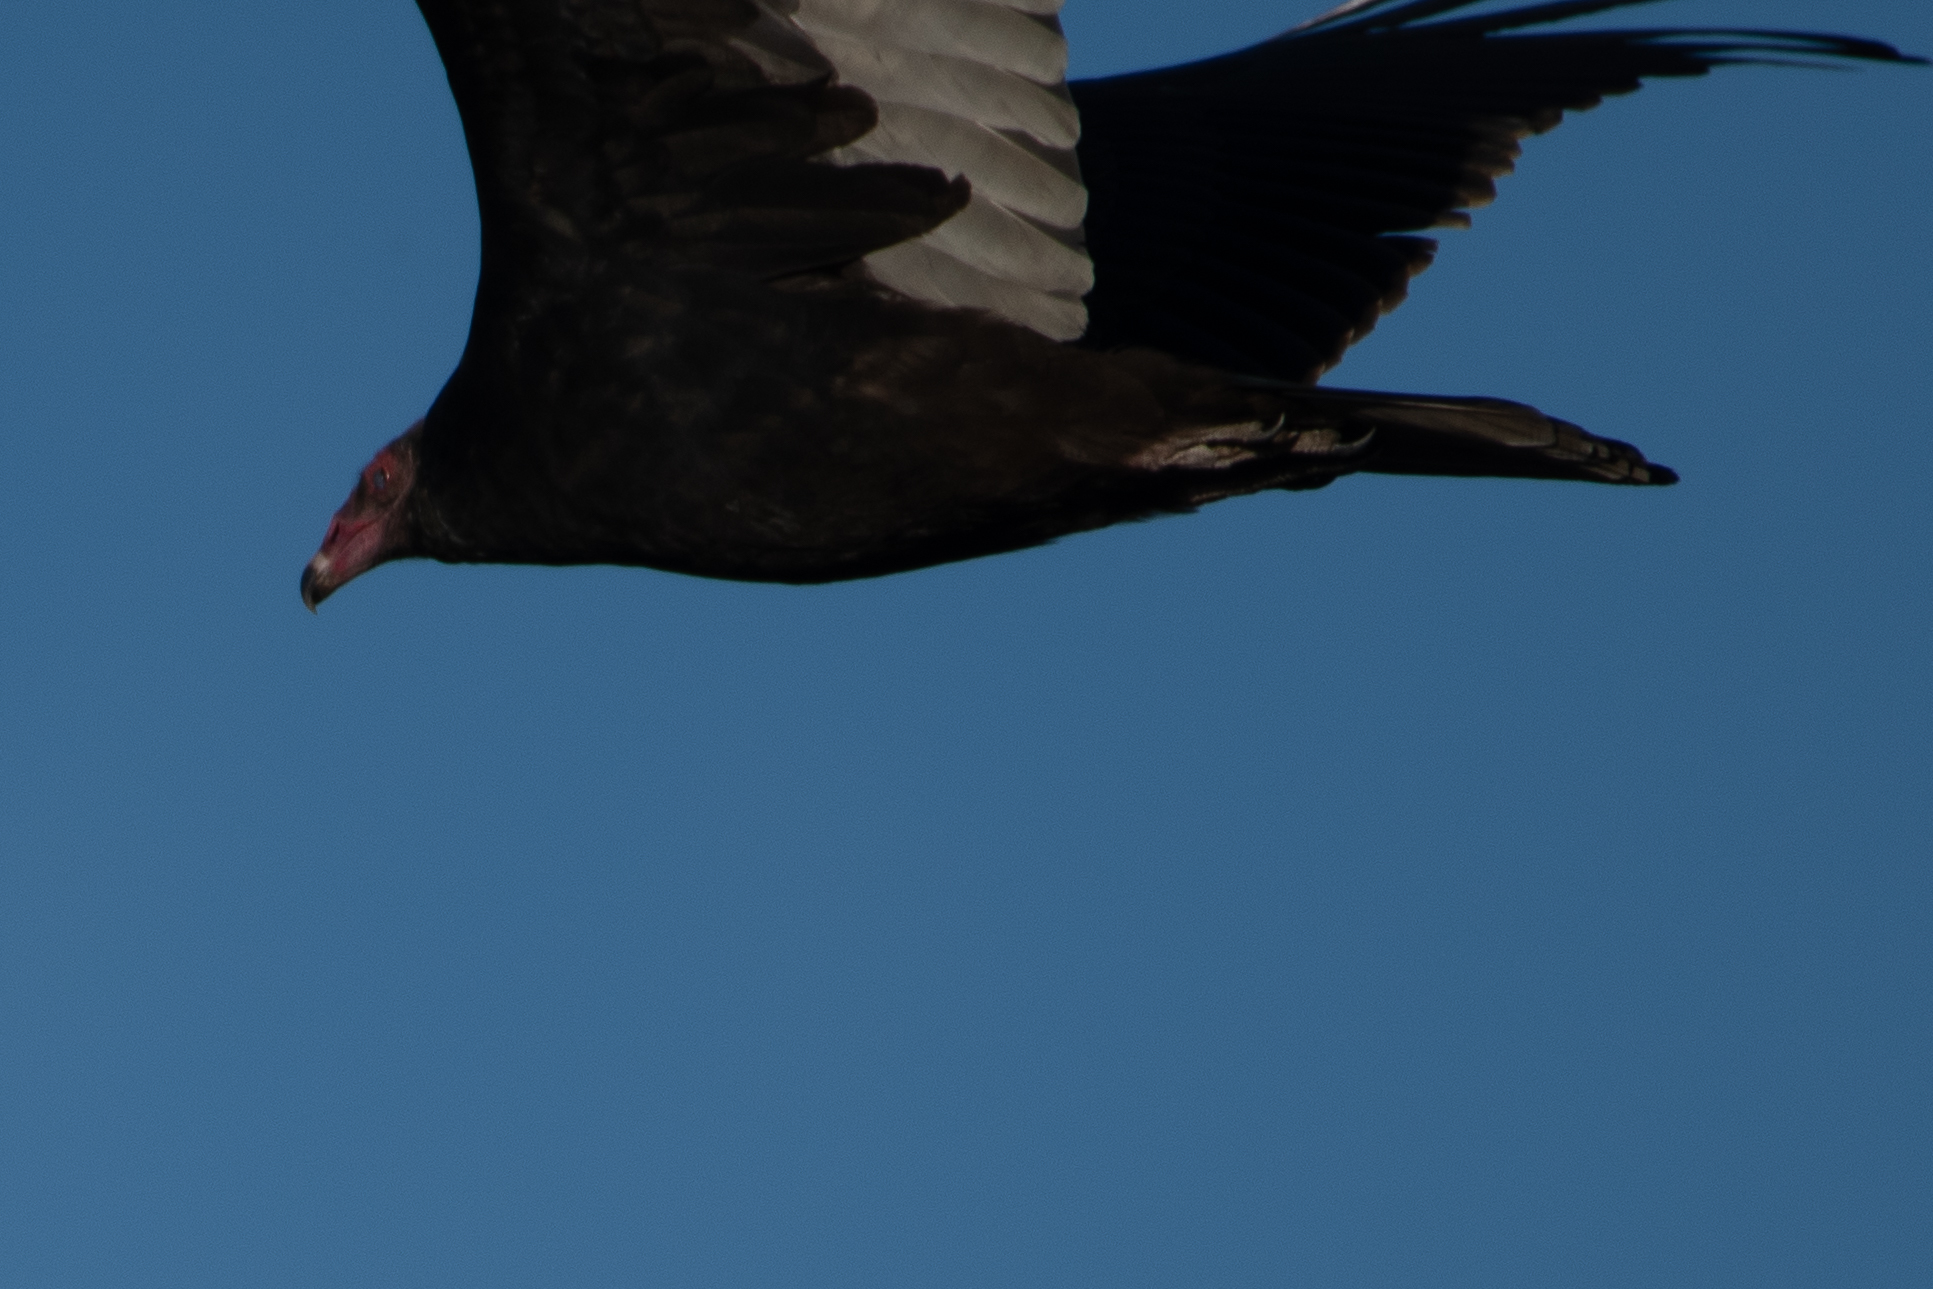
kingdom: Animalia
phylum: Chordata
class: Aves
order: Accipitriformes
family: Cathartidae
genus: Cathartes
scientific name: Cathartes aura
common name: Turkey vulture
